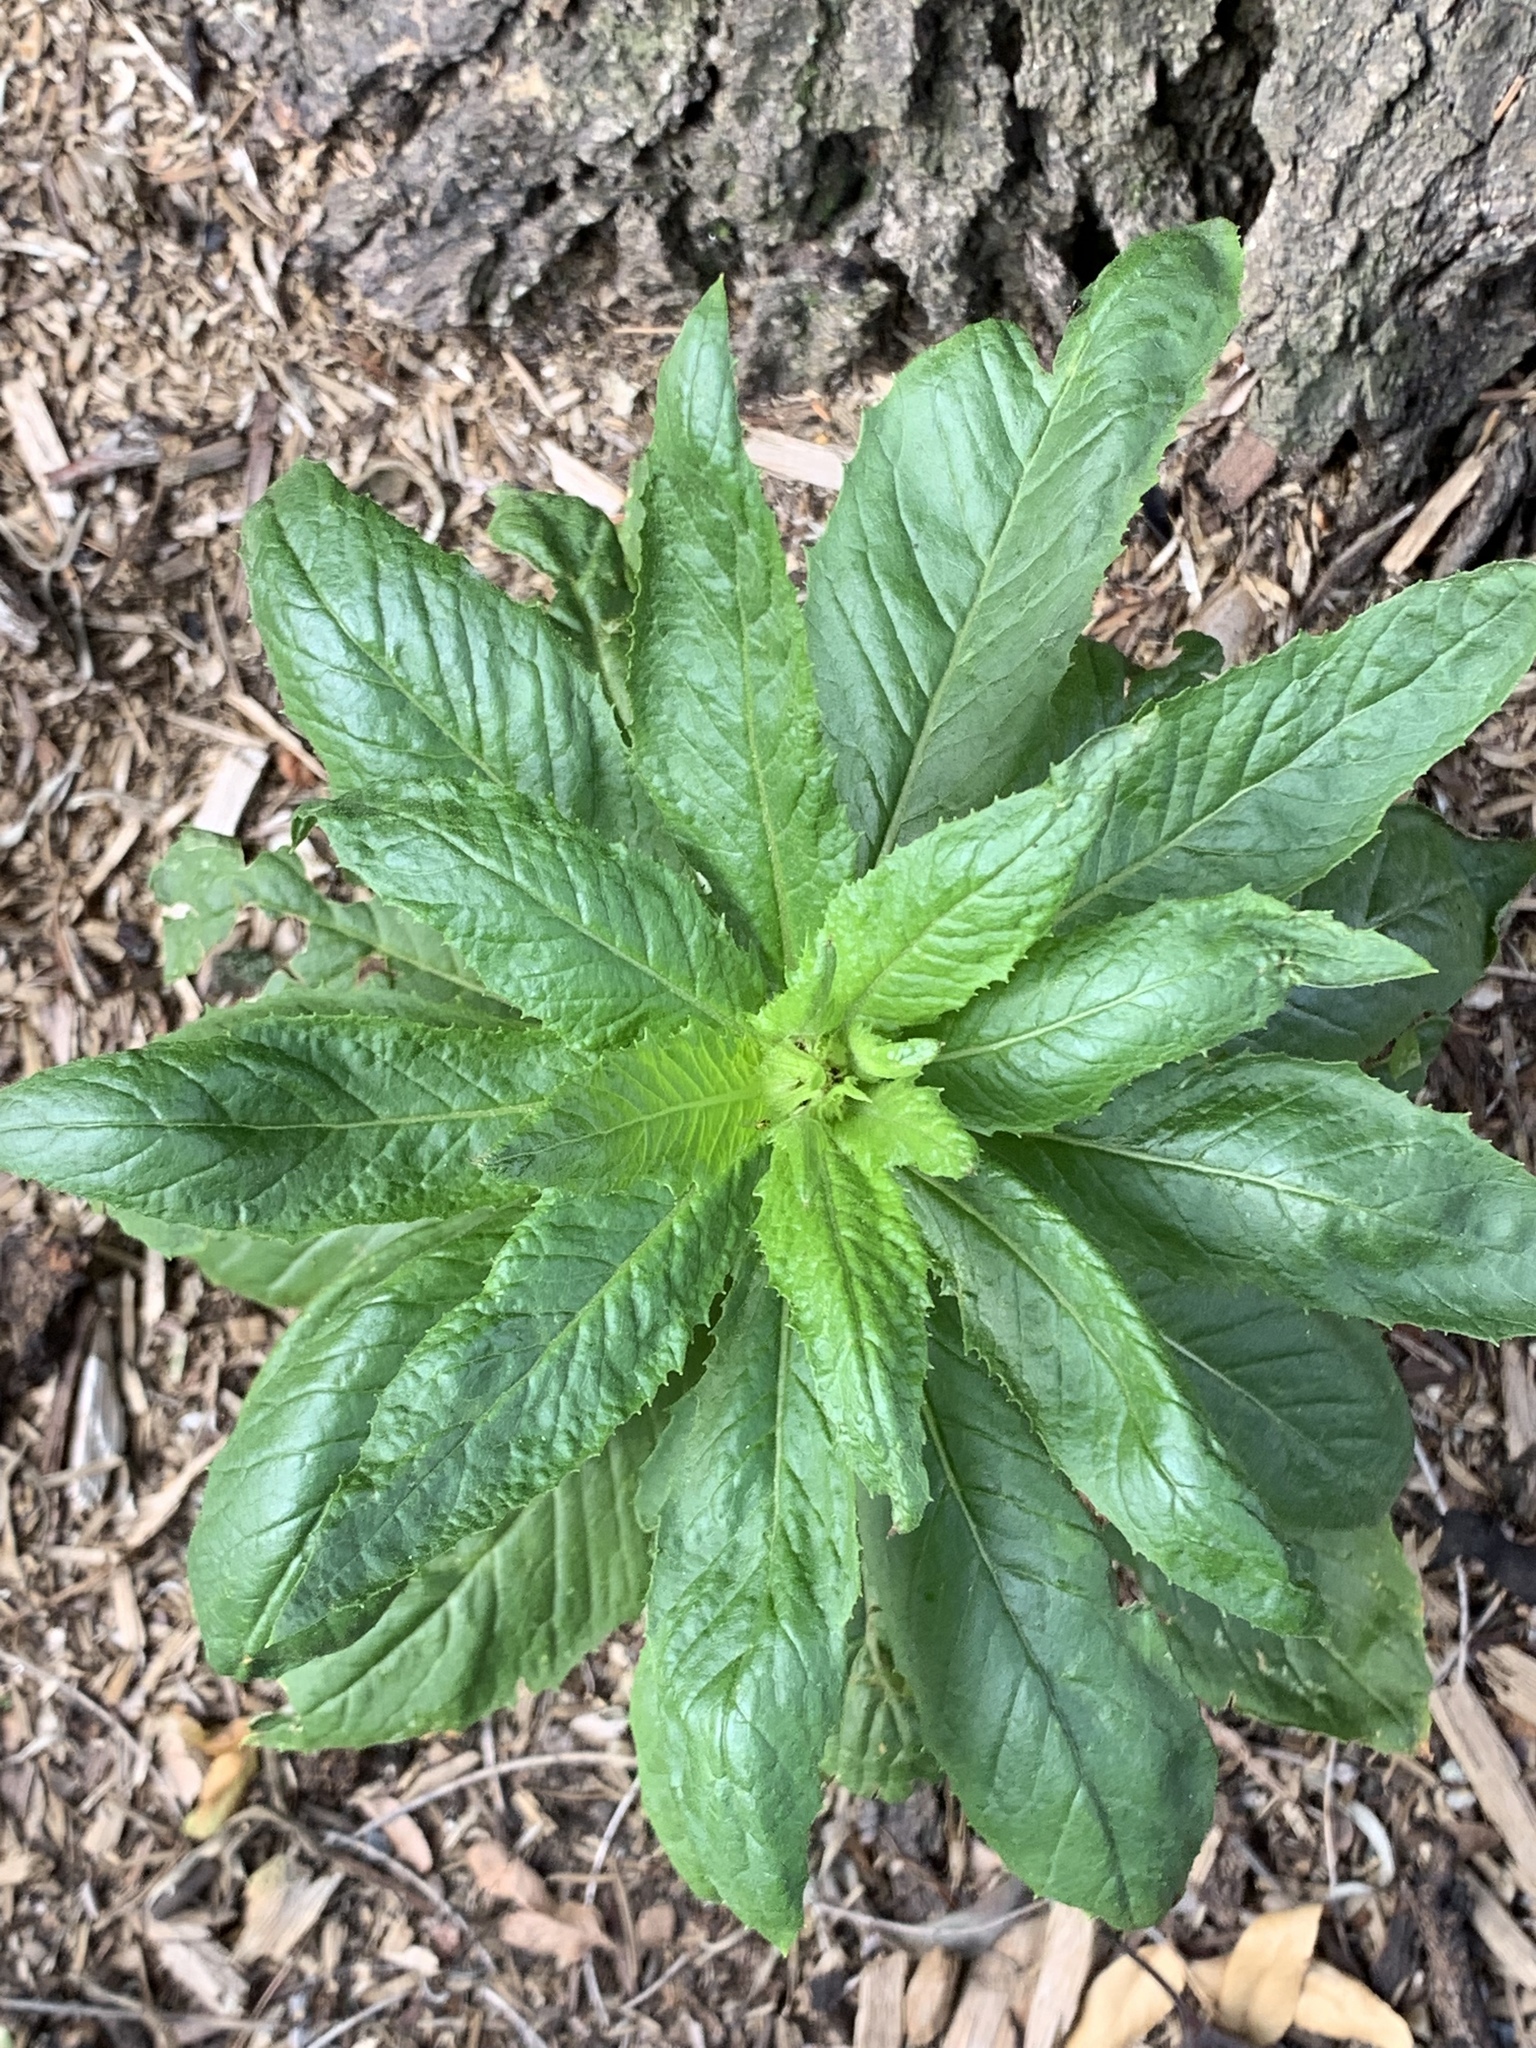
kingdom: Plantae
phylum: Tracheophyta
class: Magnoliopsida
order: Asterales
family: Asteraceae
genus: Erechtites
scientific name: Erechtites hieraciifolius
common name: American burnweed
